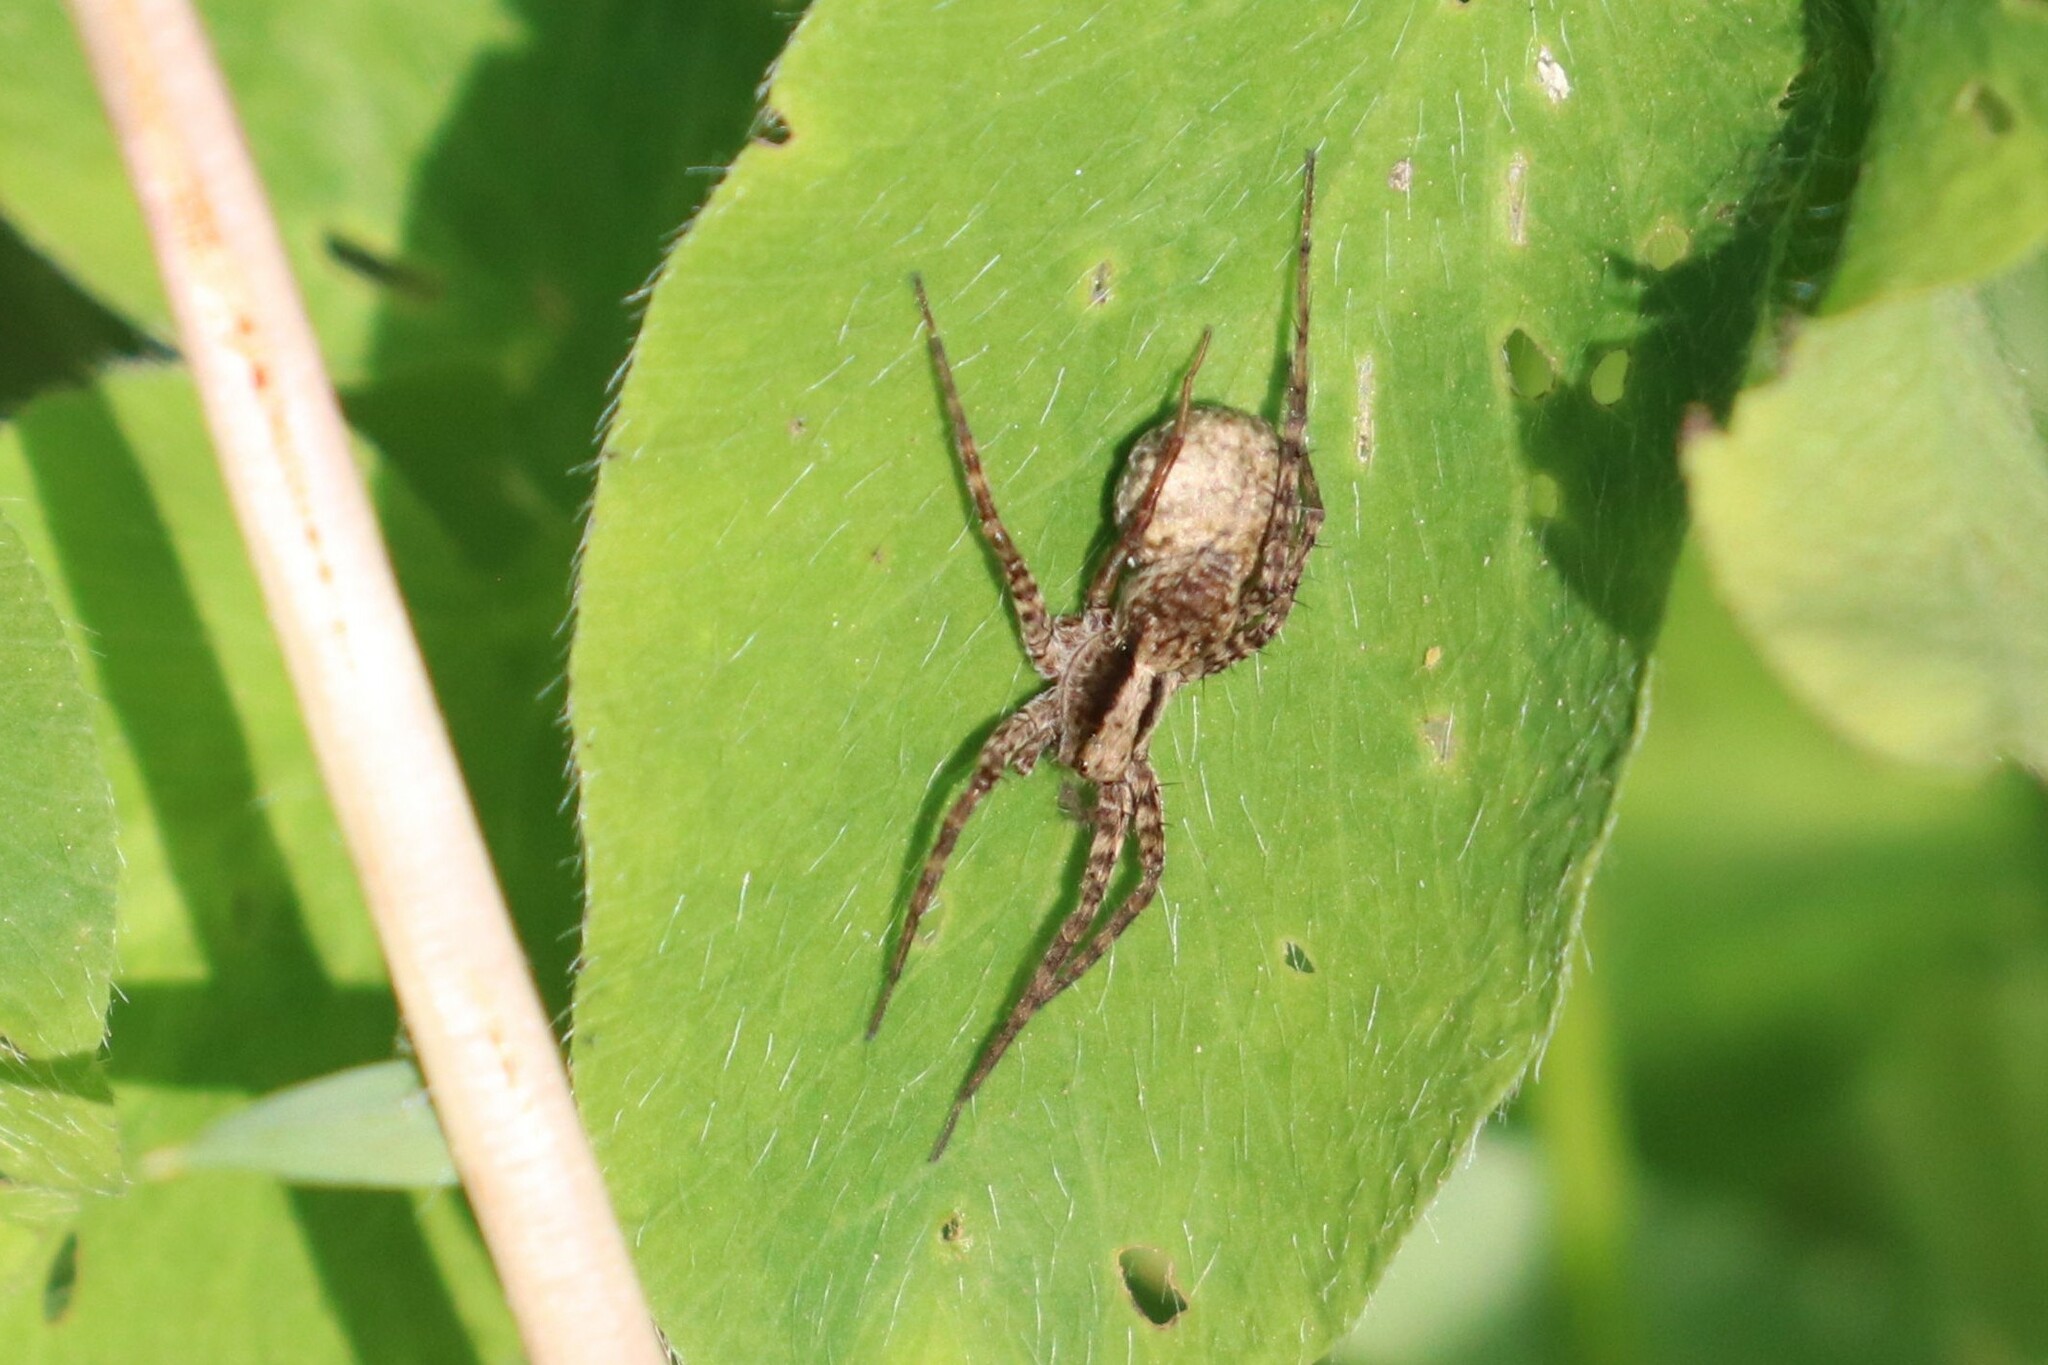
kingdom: Animalia
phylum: Arthropoda
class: Arachnida
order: Araneae
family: Lycosidae
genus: Pardosa
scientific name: Pardosa
